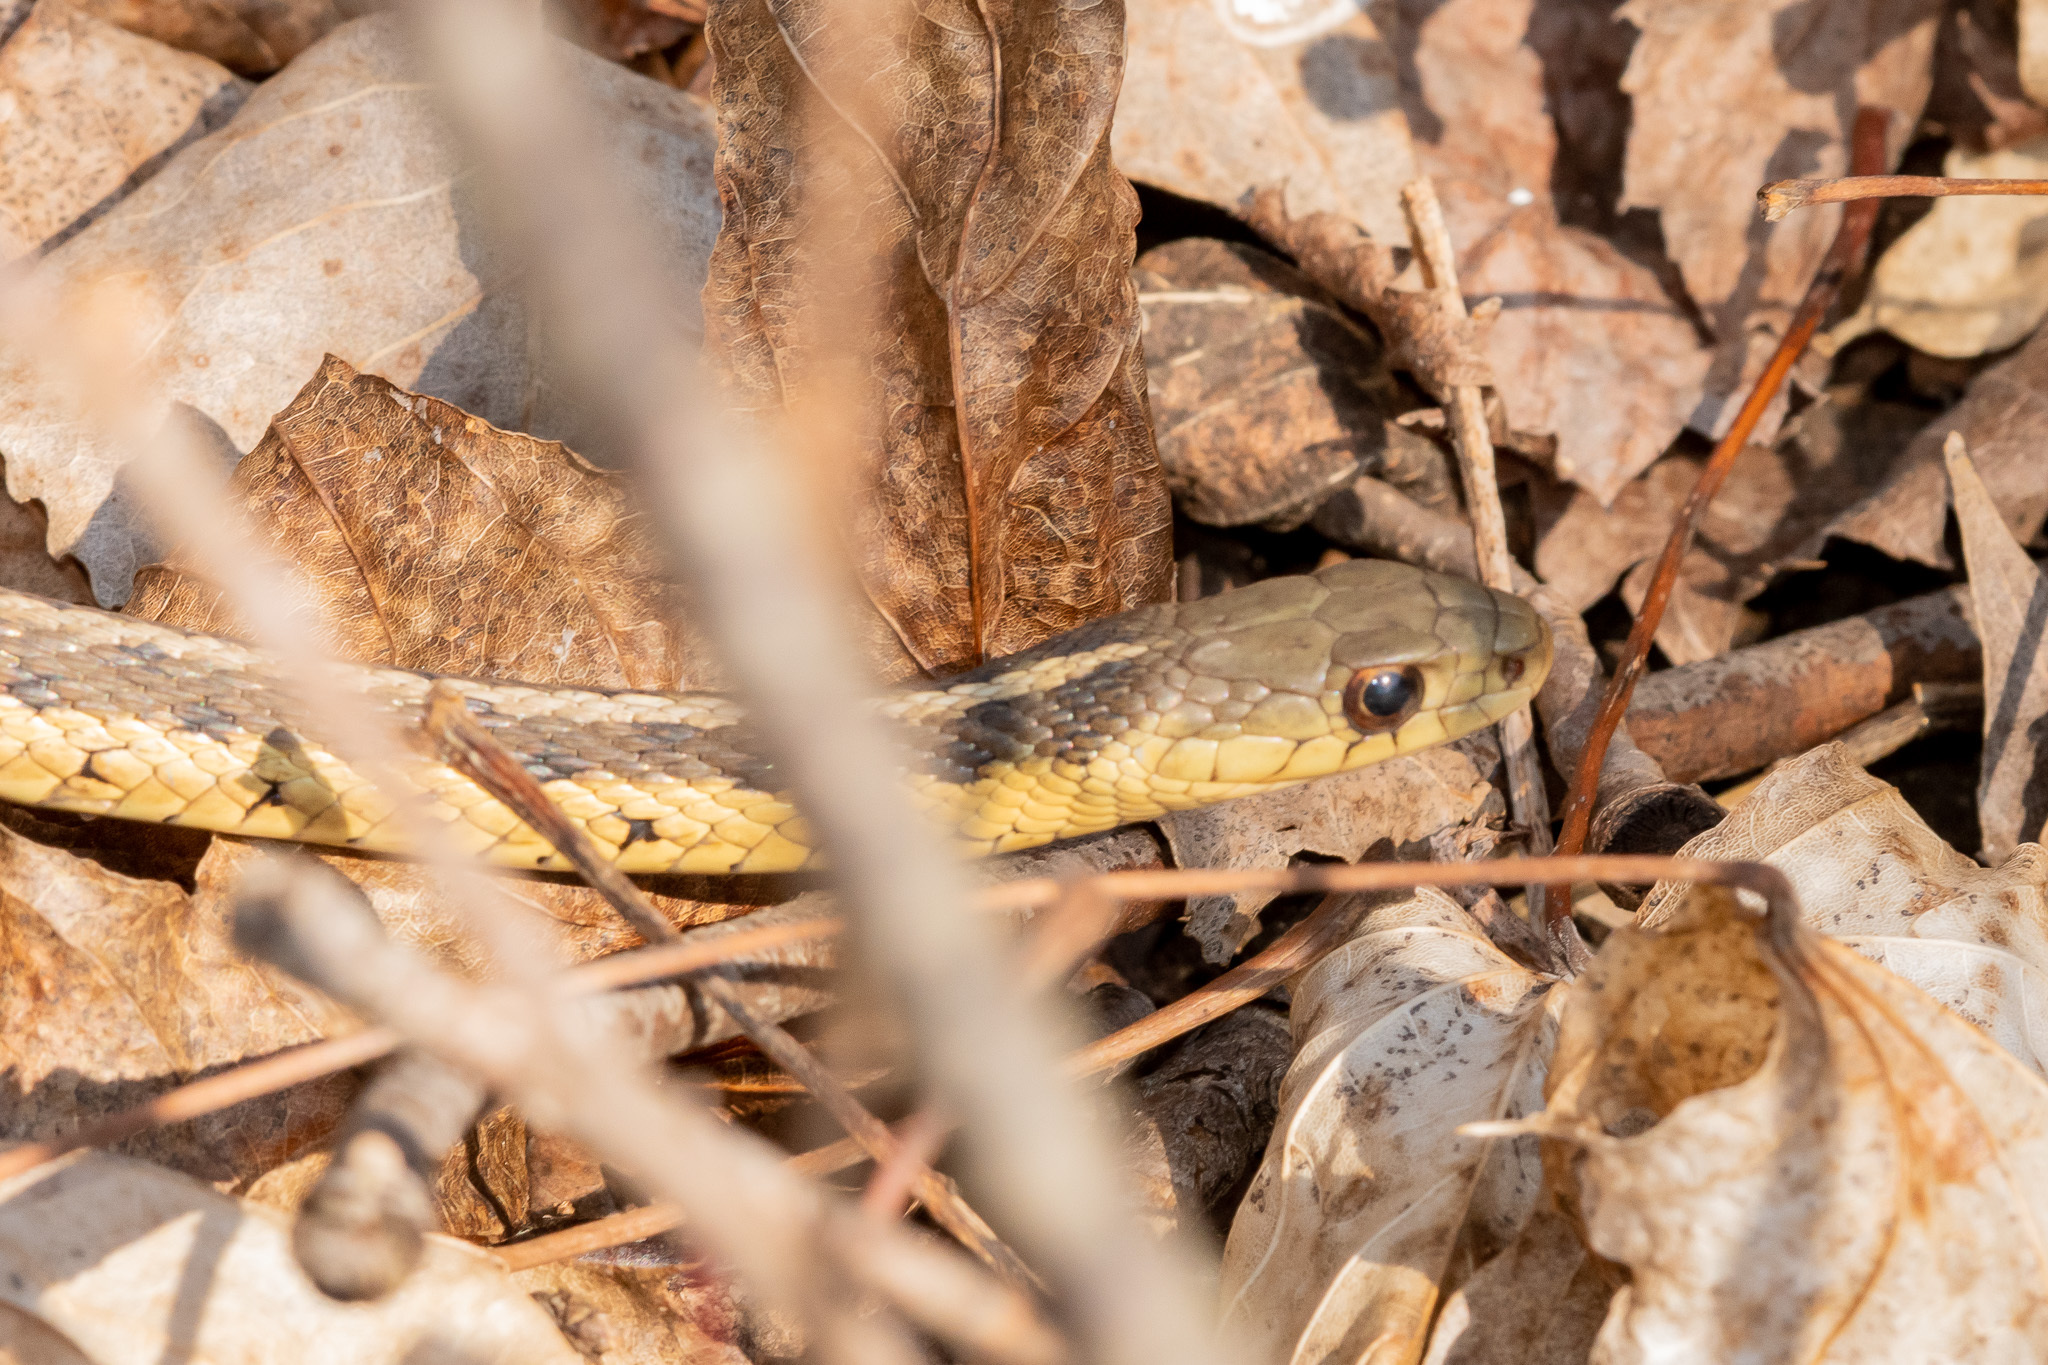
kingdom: Animalia
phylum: Chordata
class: Squamata
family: Colubridae
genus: Thamnophis
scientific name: Thamnophis sirtalis
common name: Common garter snake
